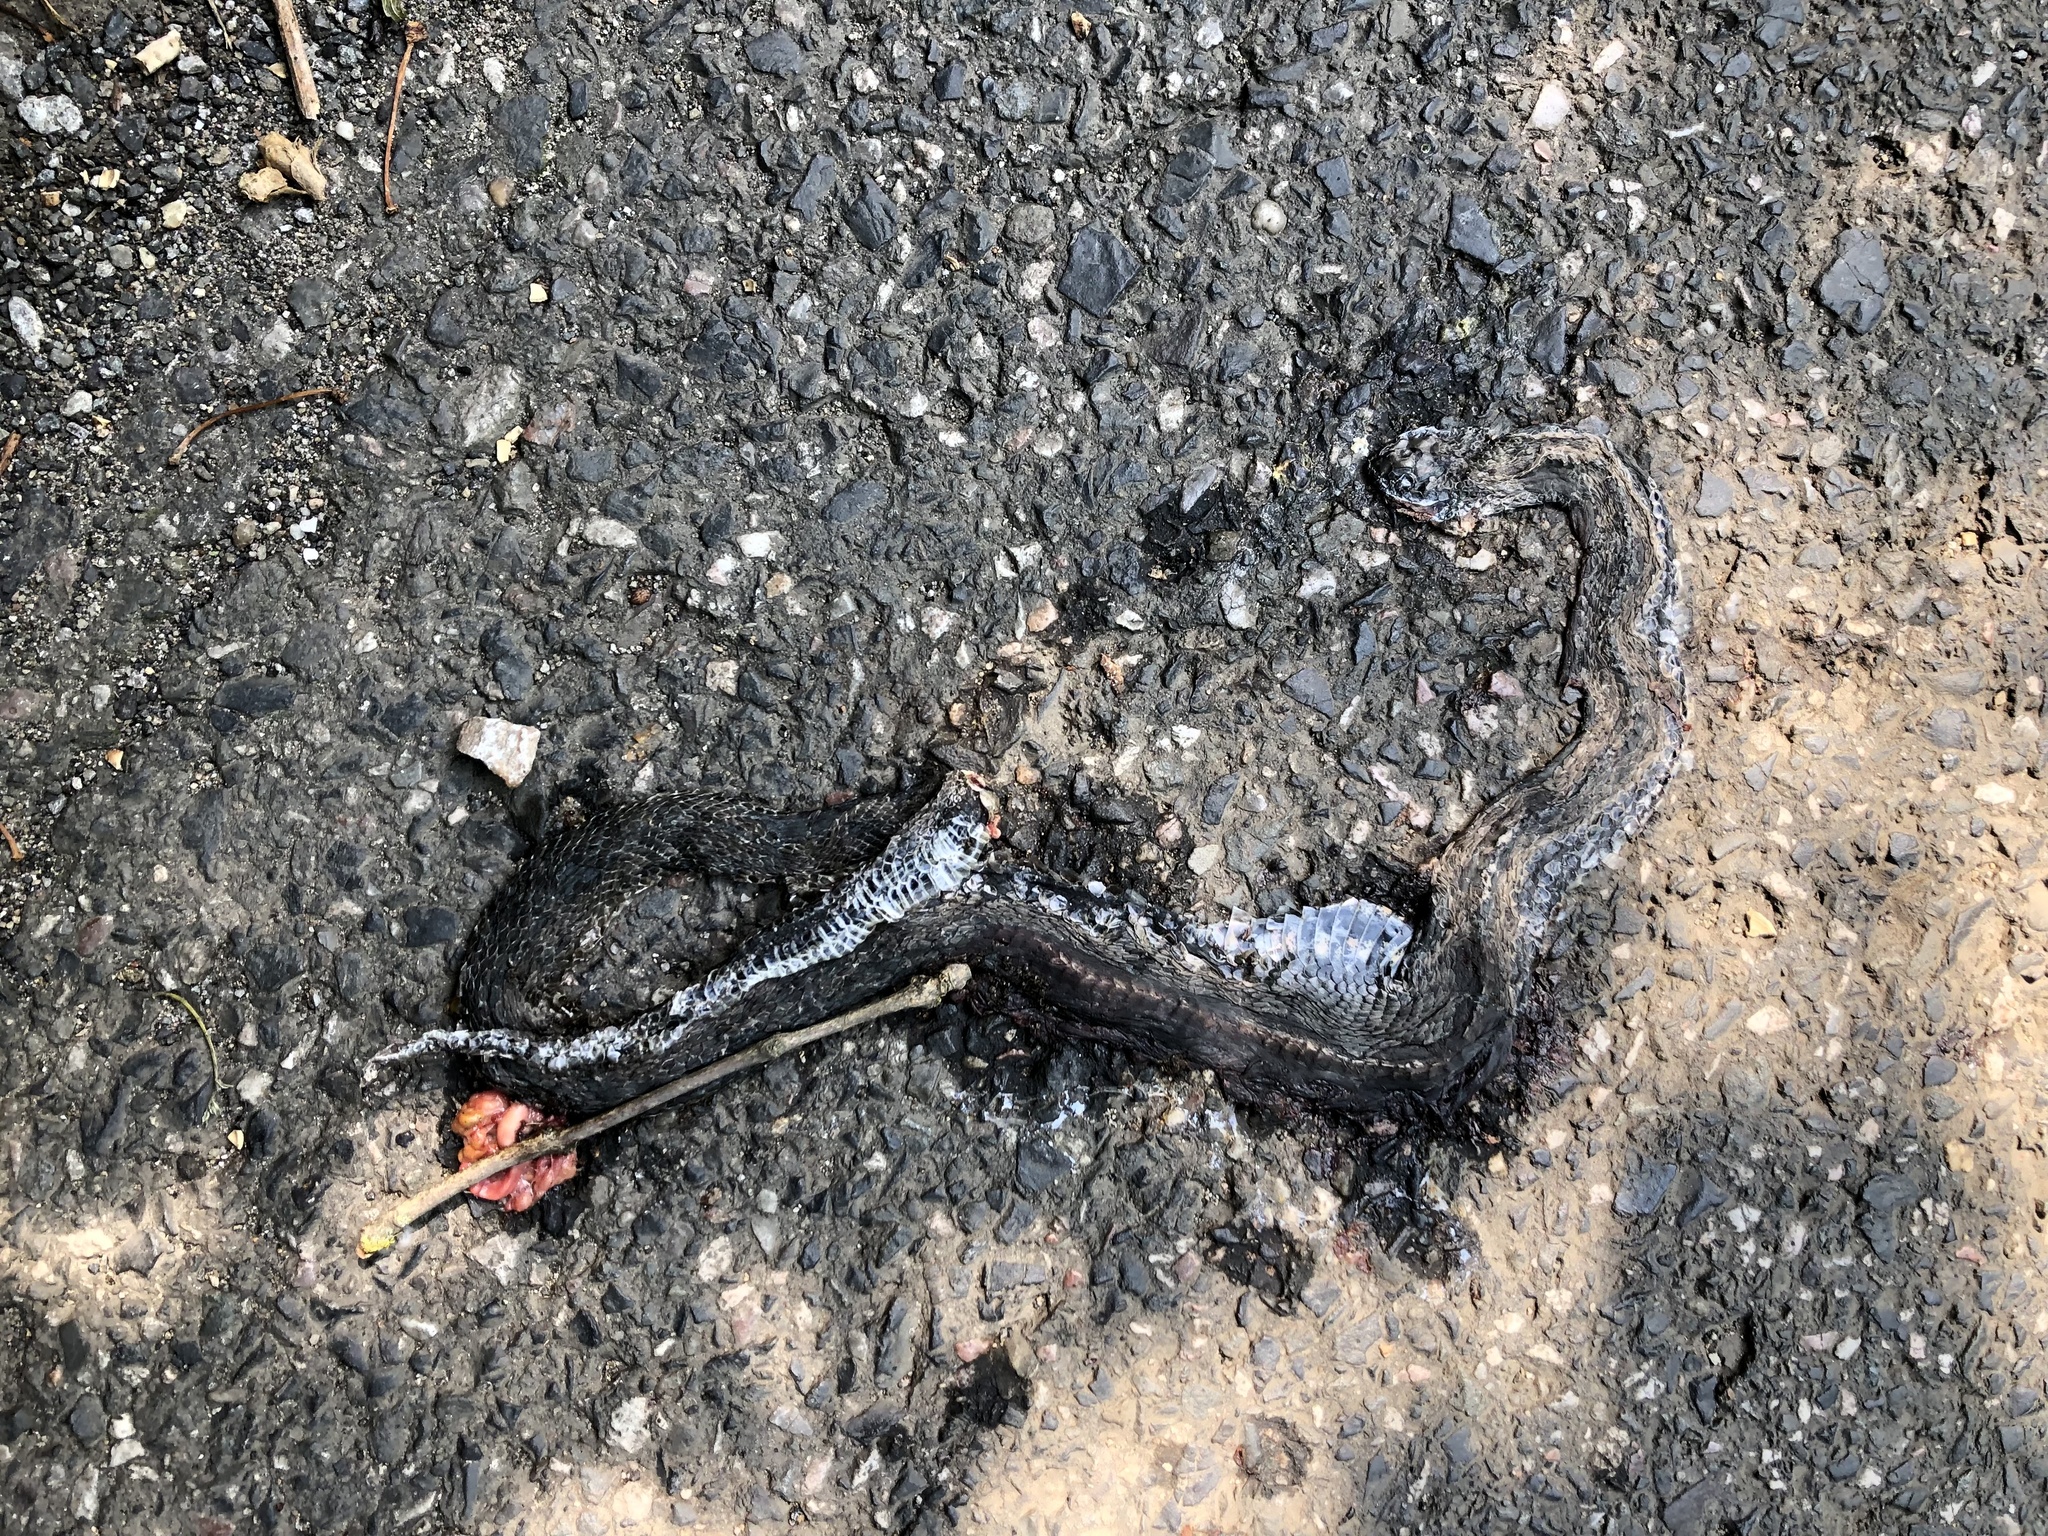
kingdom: Animalia
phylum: Chordata
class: Squamata
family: Colubridae
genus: Natrix
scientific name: Natrix tessellata
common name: Dice snake
